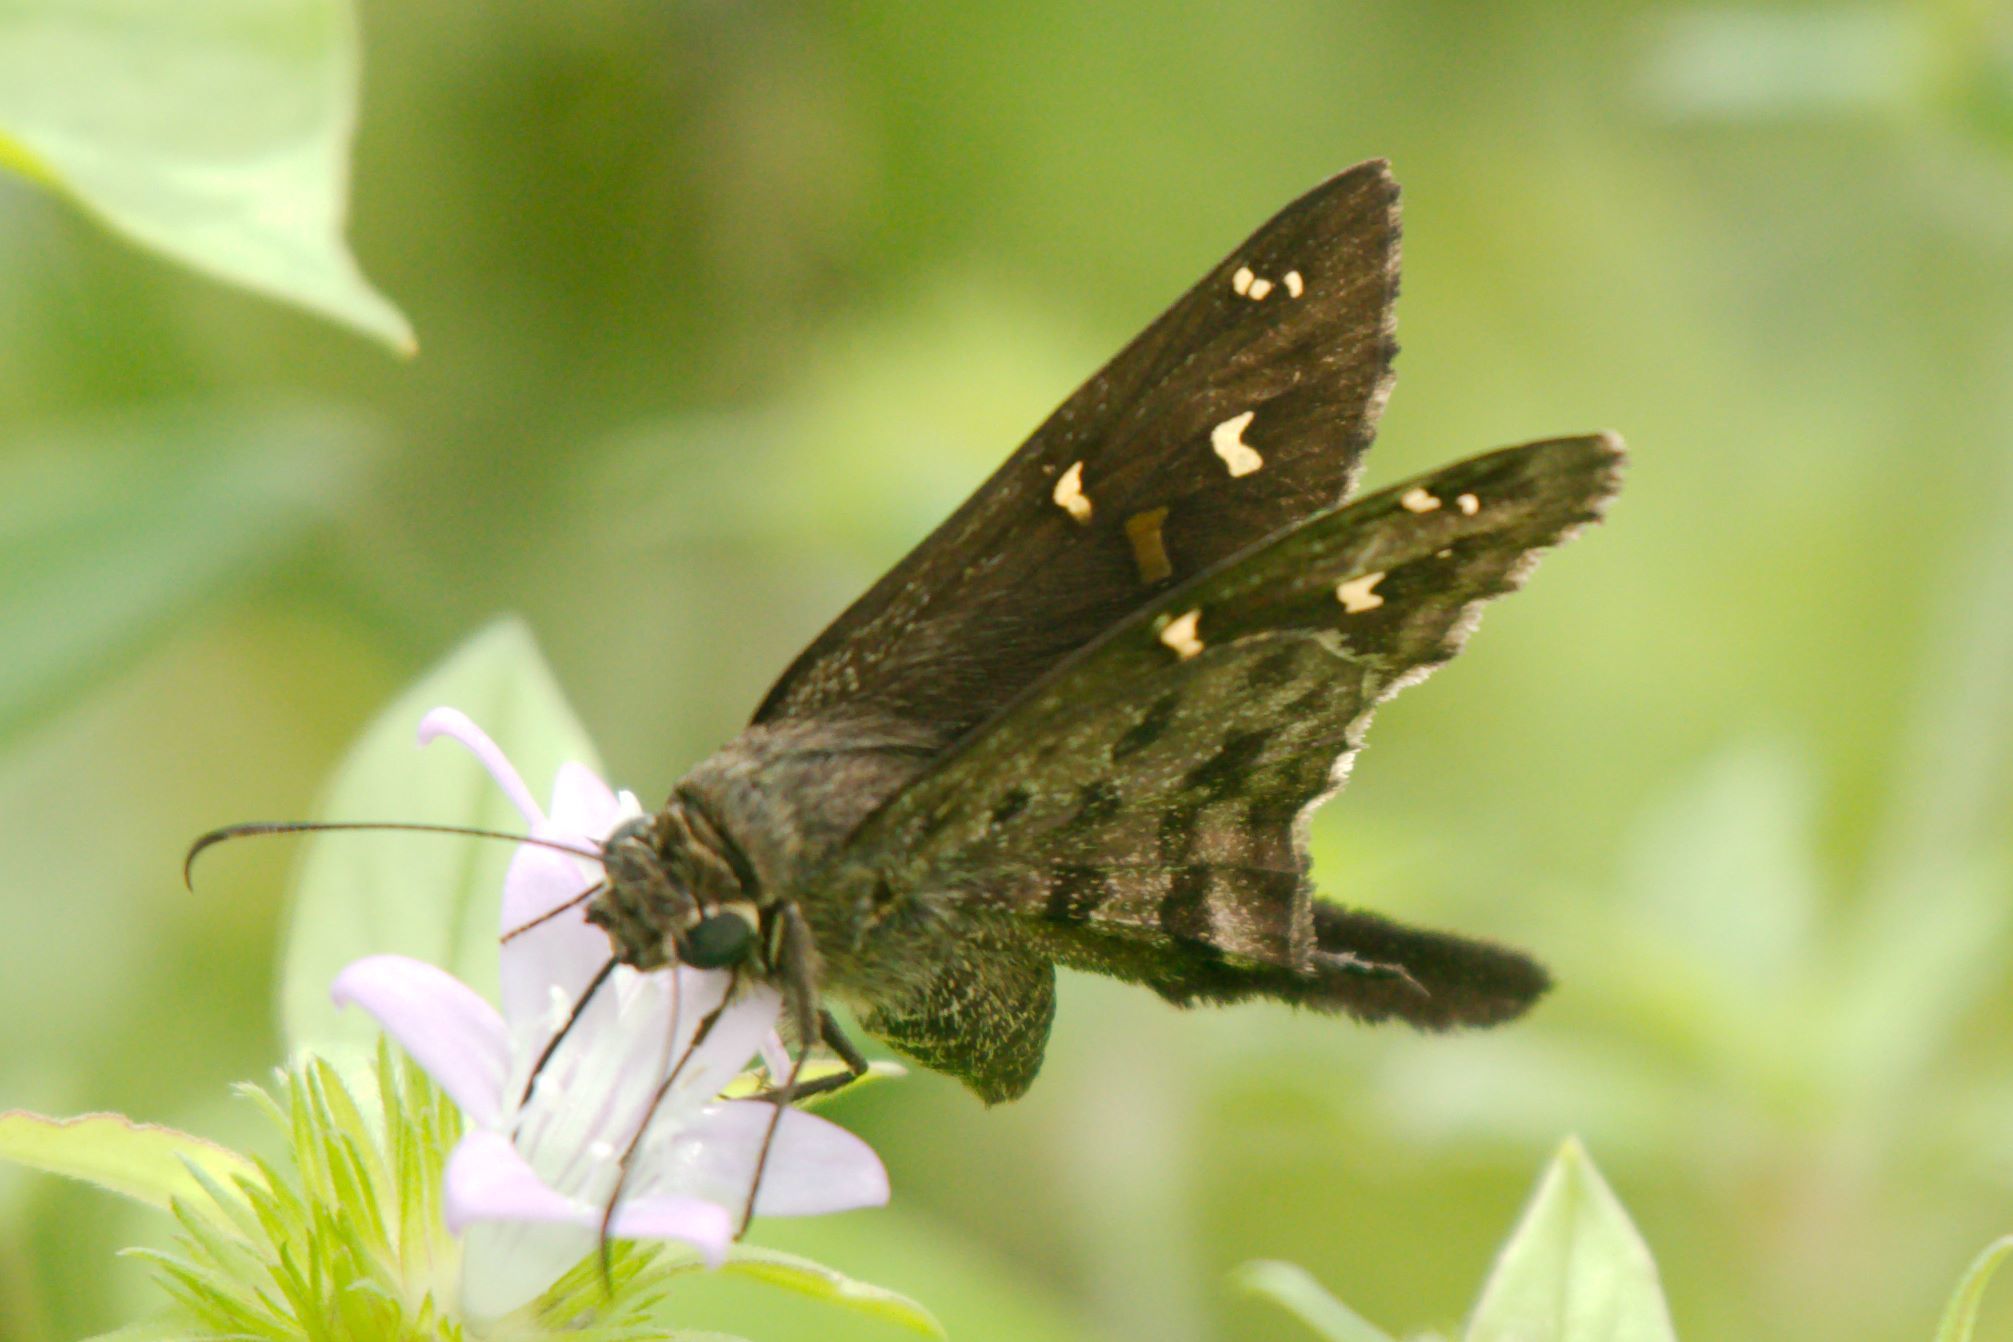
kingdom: Animalia
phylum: Arthropoda
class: Insecta
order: Lepidoptera
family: Hesperiidae
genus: Thorybes
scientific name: Thorybes
